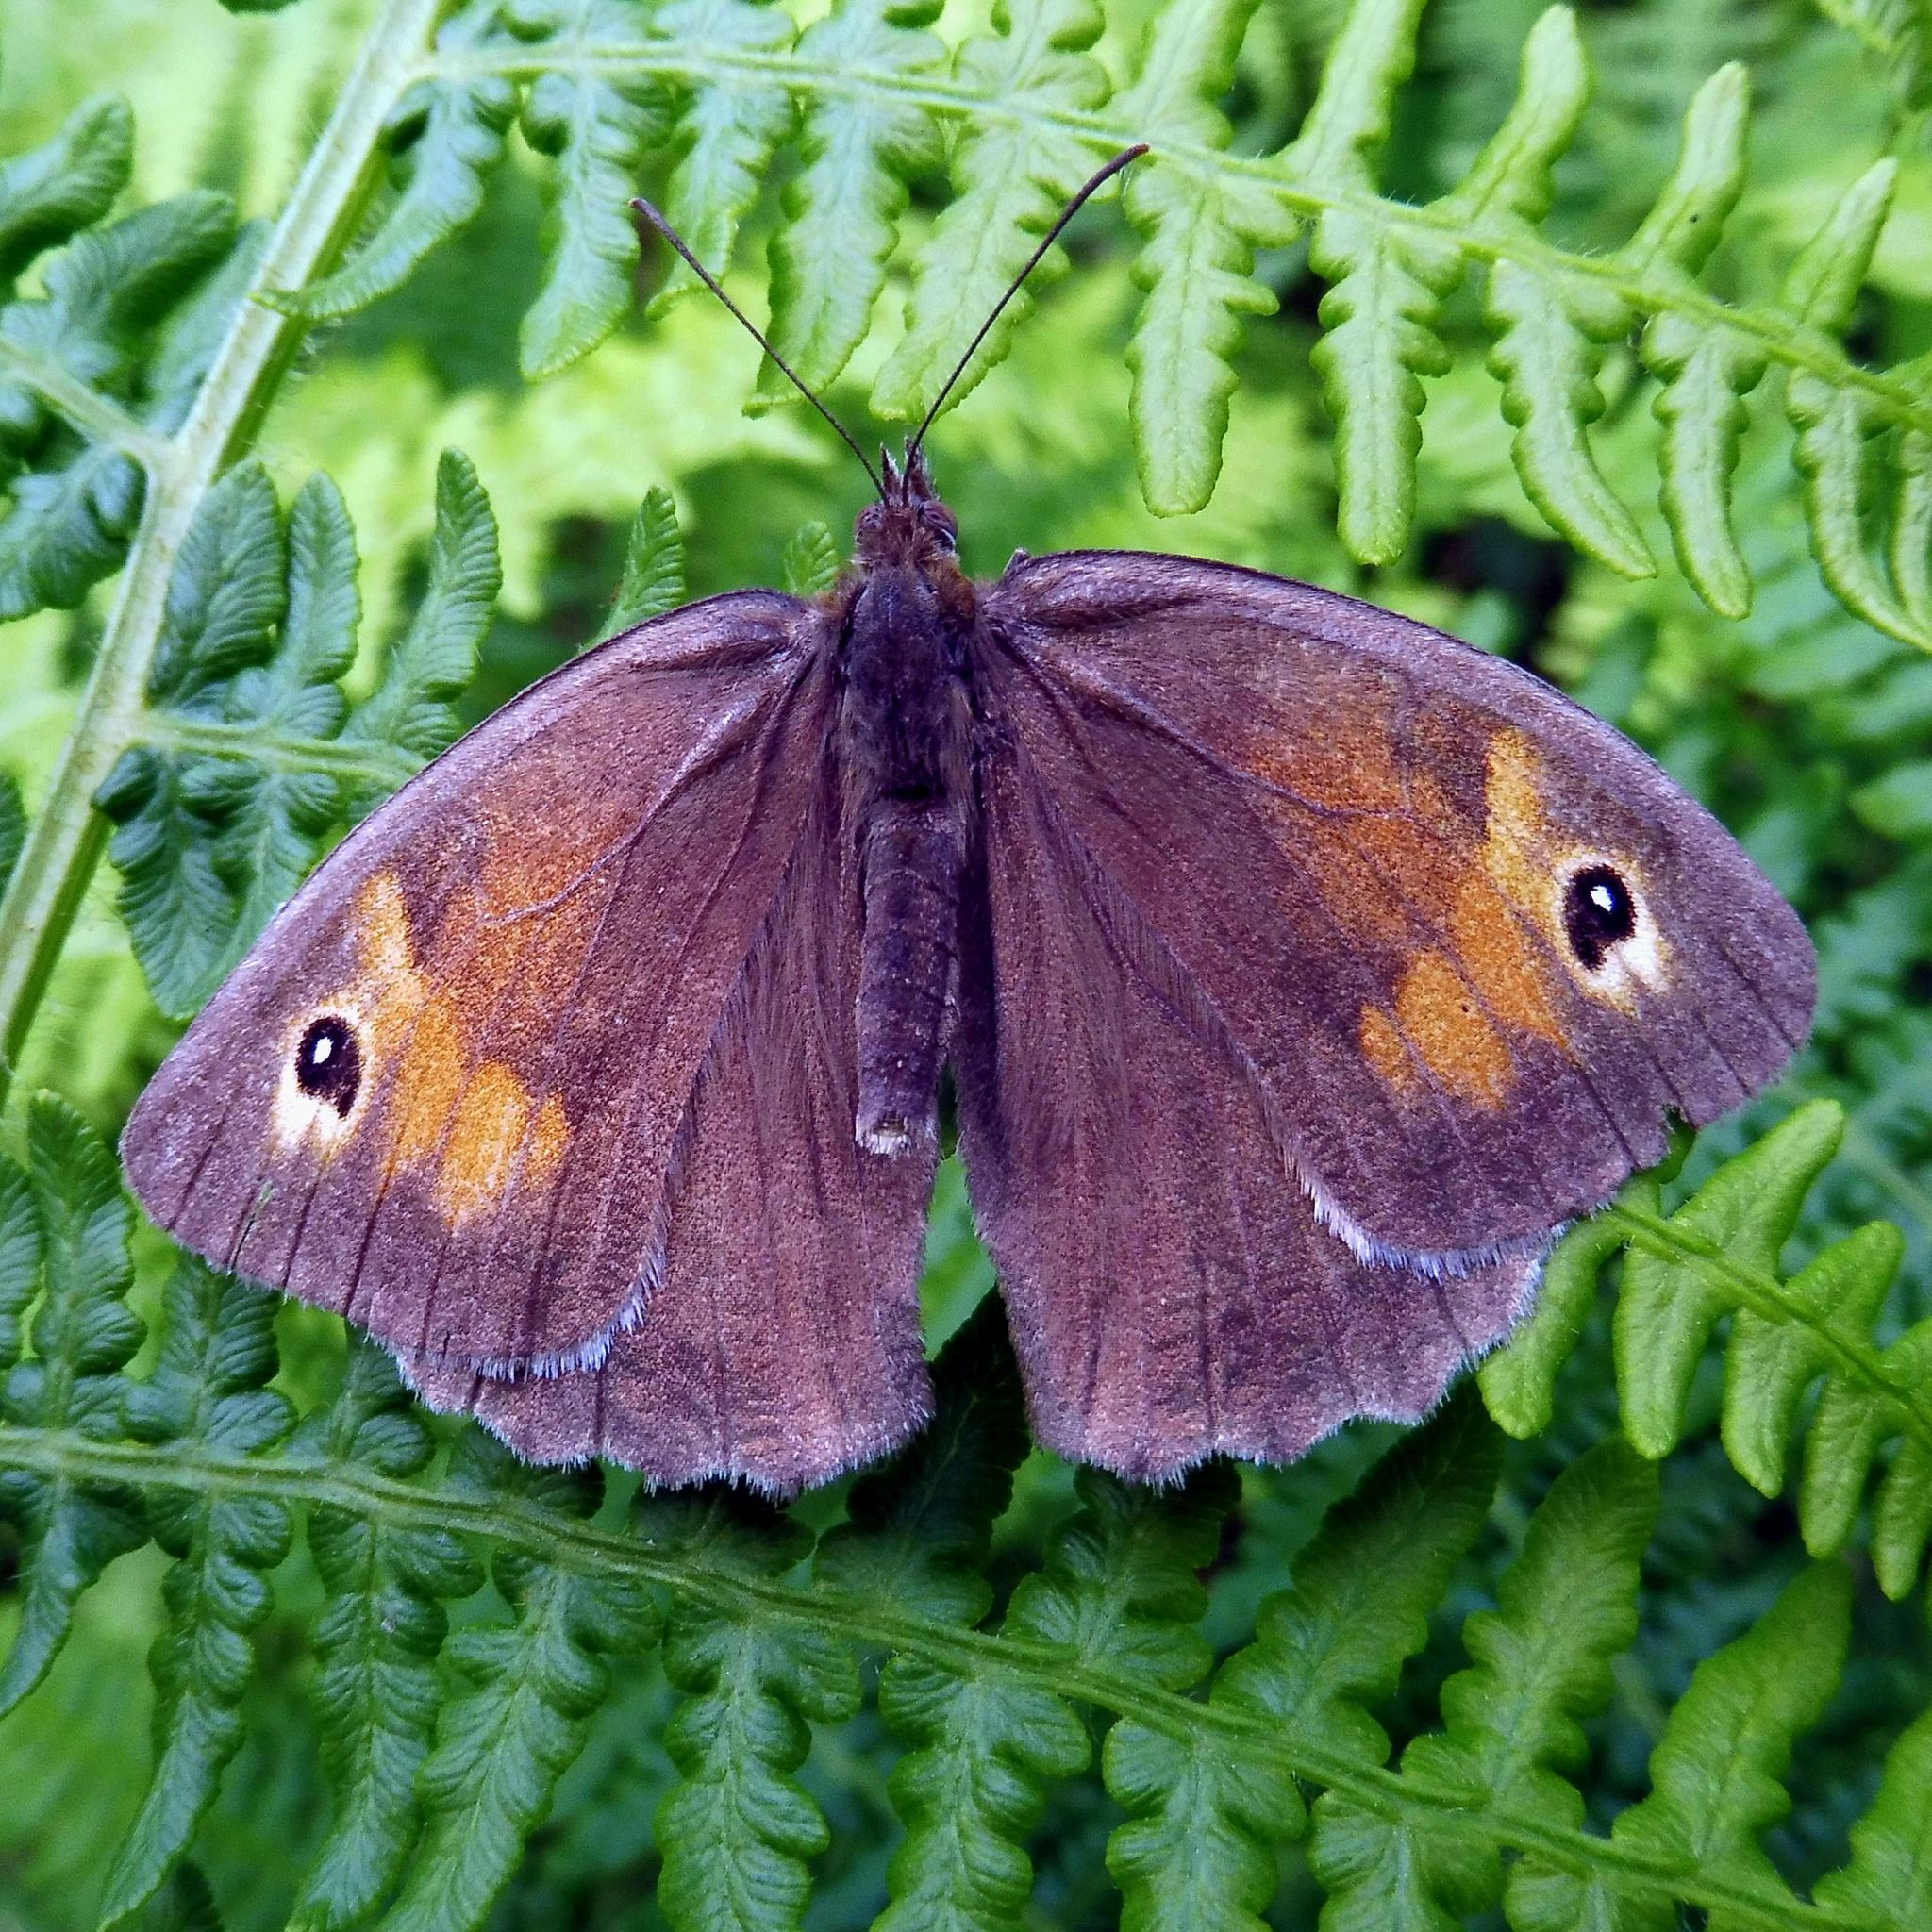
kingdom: Animalia
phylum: Arthropoda
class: Insecta
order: Lepidoptera
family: Nymphalidae
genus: Maniola
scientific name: Maniola jurtina
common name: Meadow brown
